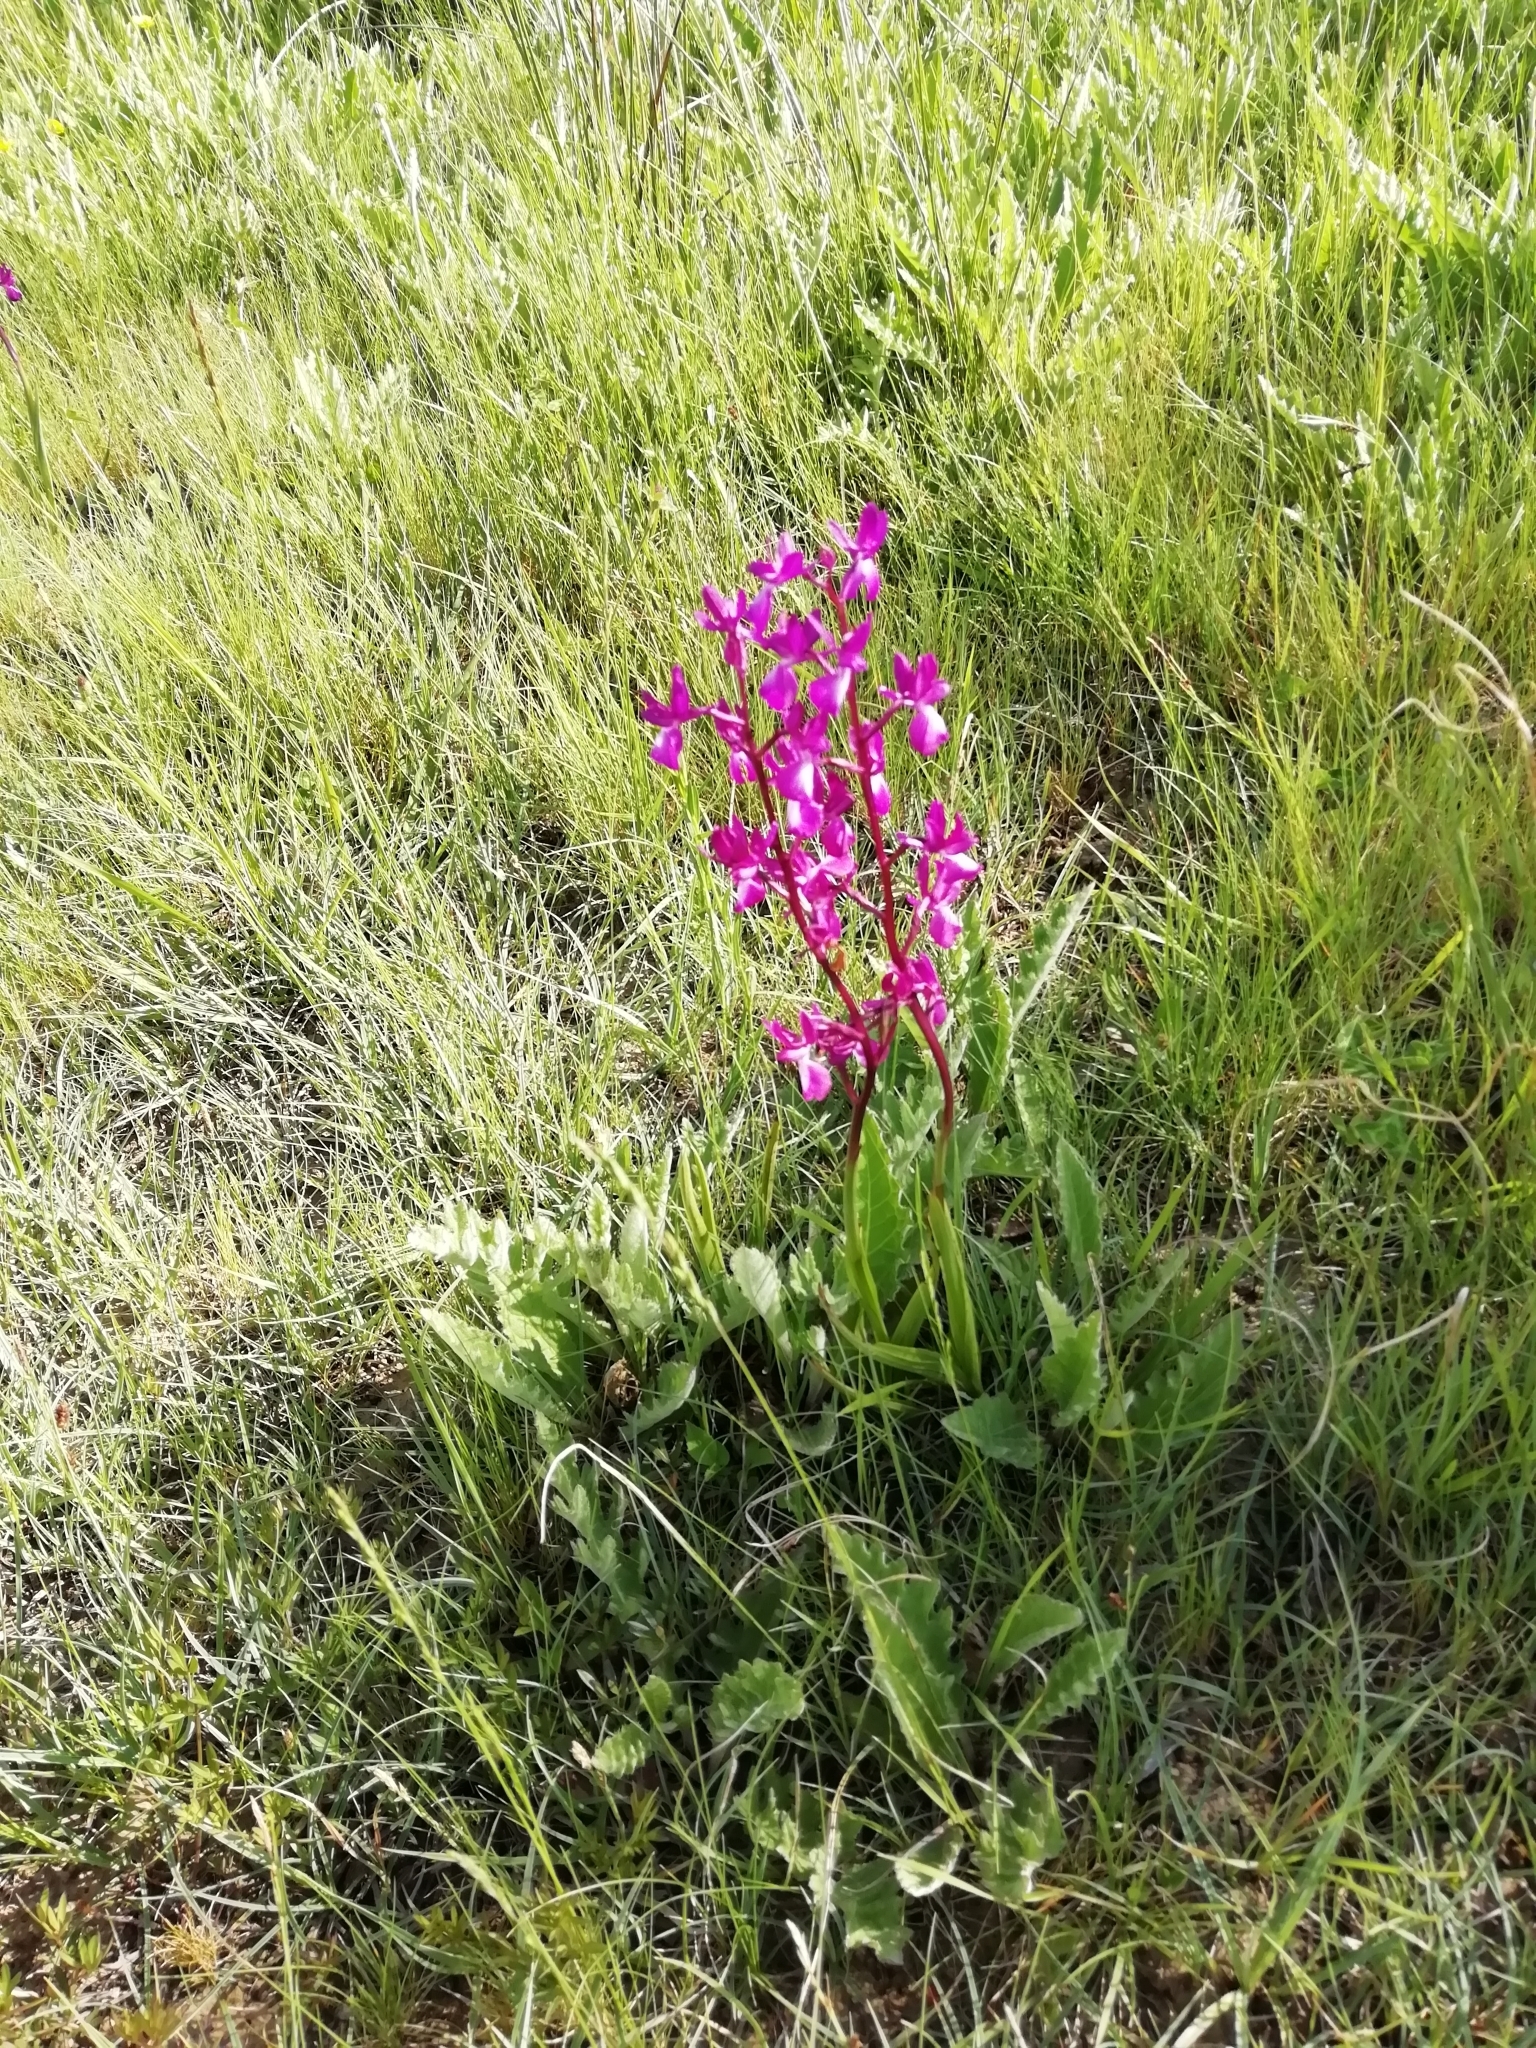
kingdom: Plantae
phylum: Tracheophyta
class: Liliopsida
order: Asparagales
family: Orchidaceae
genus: Anacamptis
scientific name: Anacamptis laxiflora
